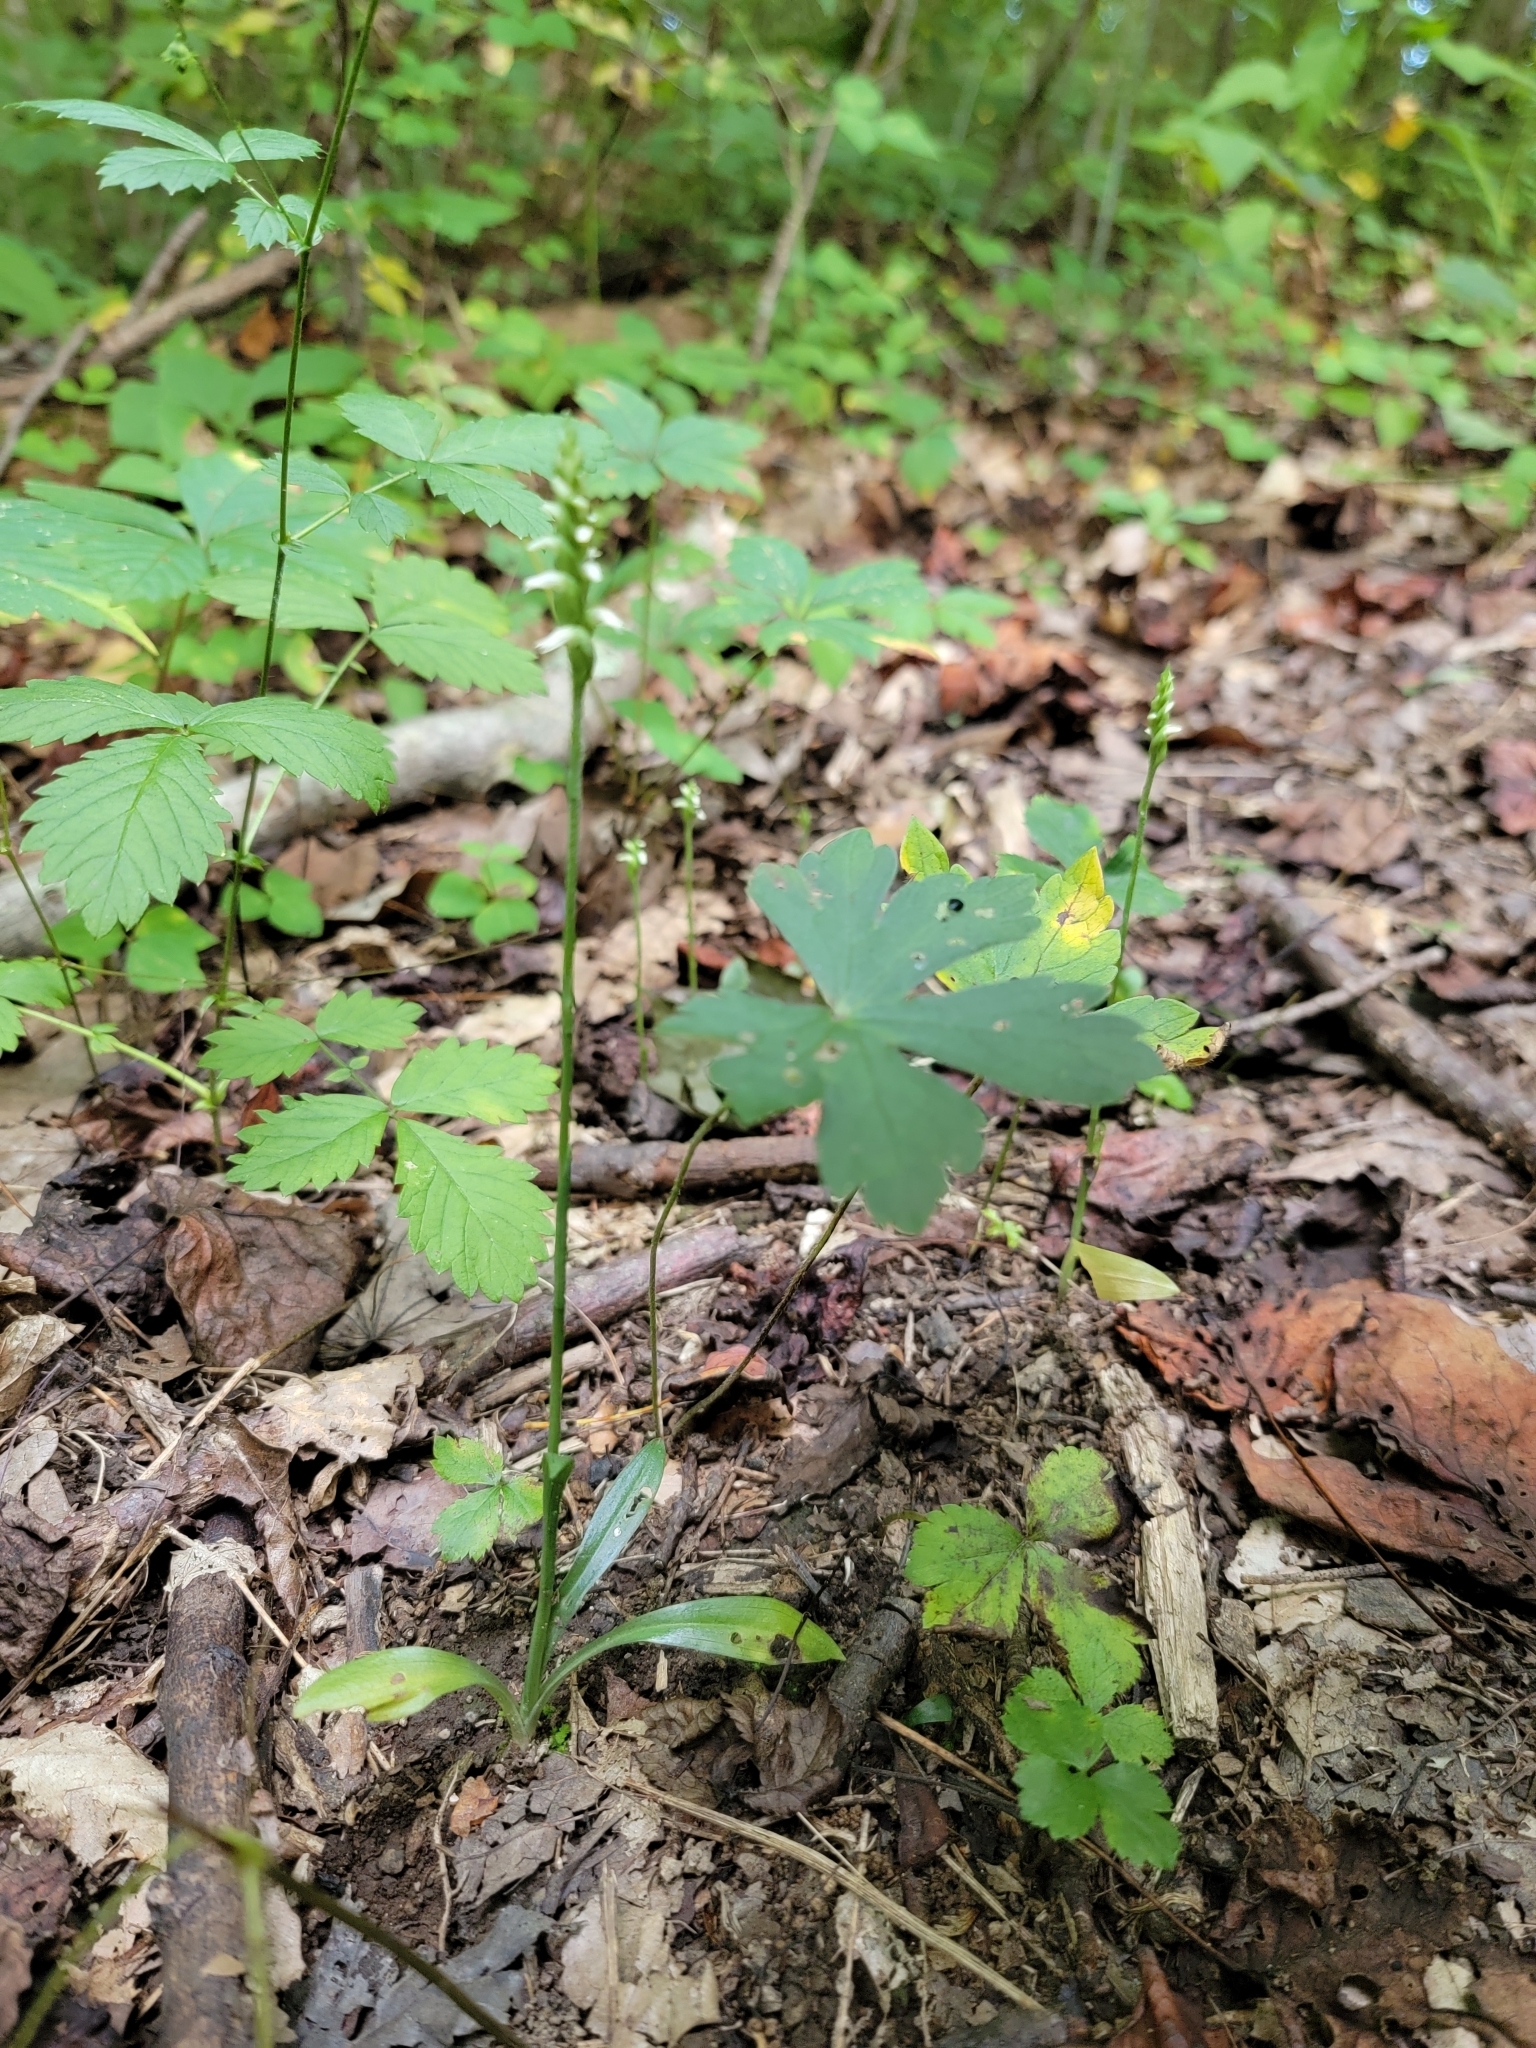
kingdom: Plantae
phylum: Tracheophyta
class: Liliopsida
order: Asparagales
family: Orchidaceae
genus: Spiranthes
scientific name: Spiranthes ovalis
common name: October ladies'-tresses
